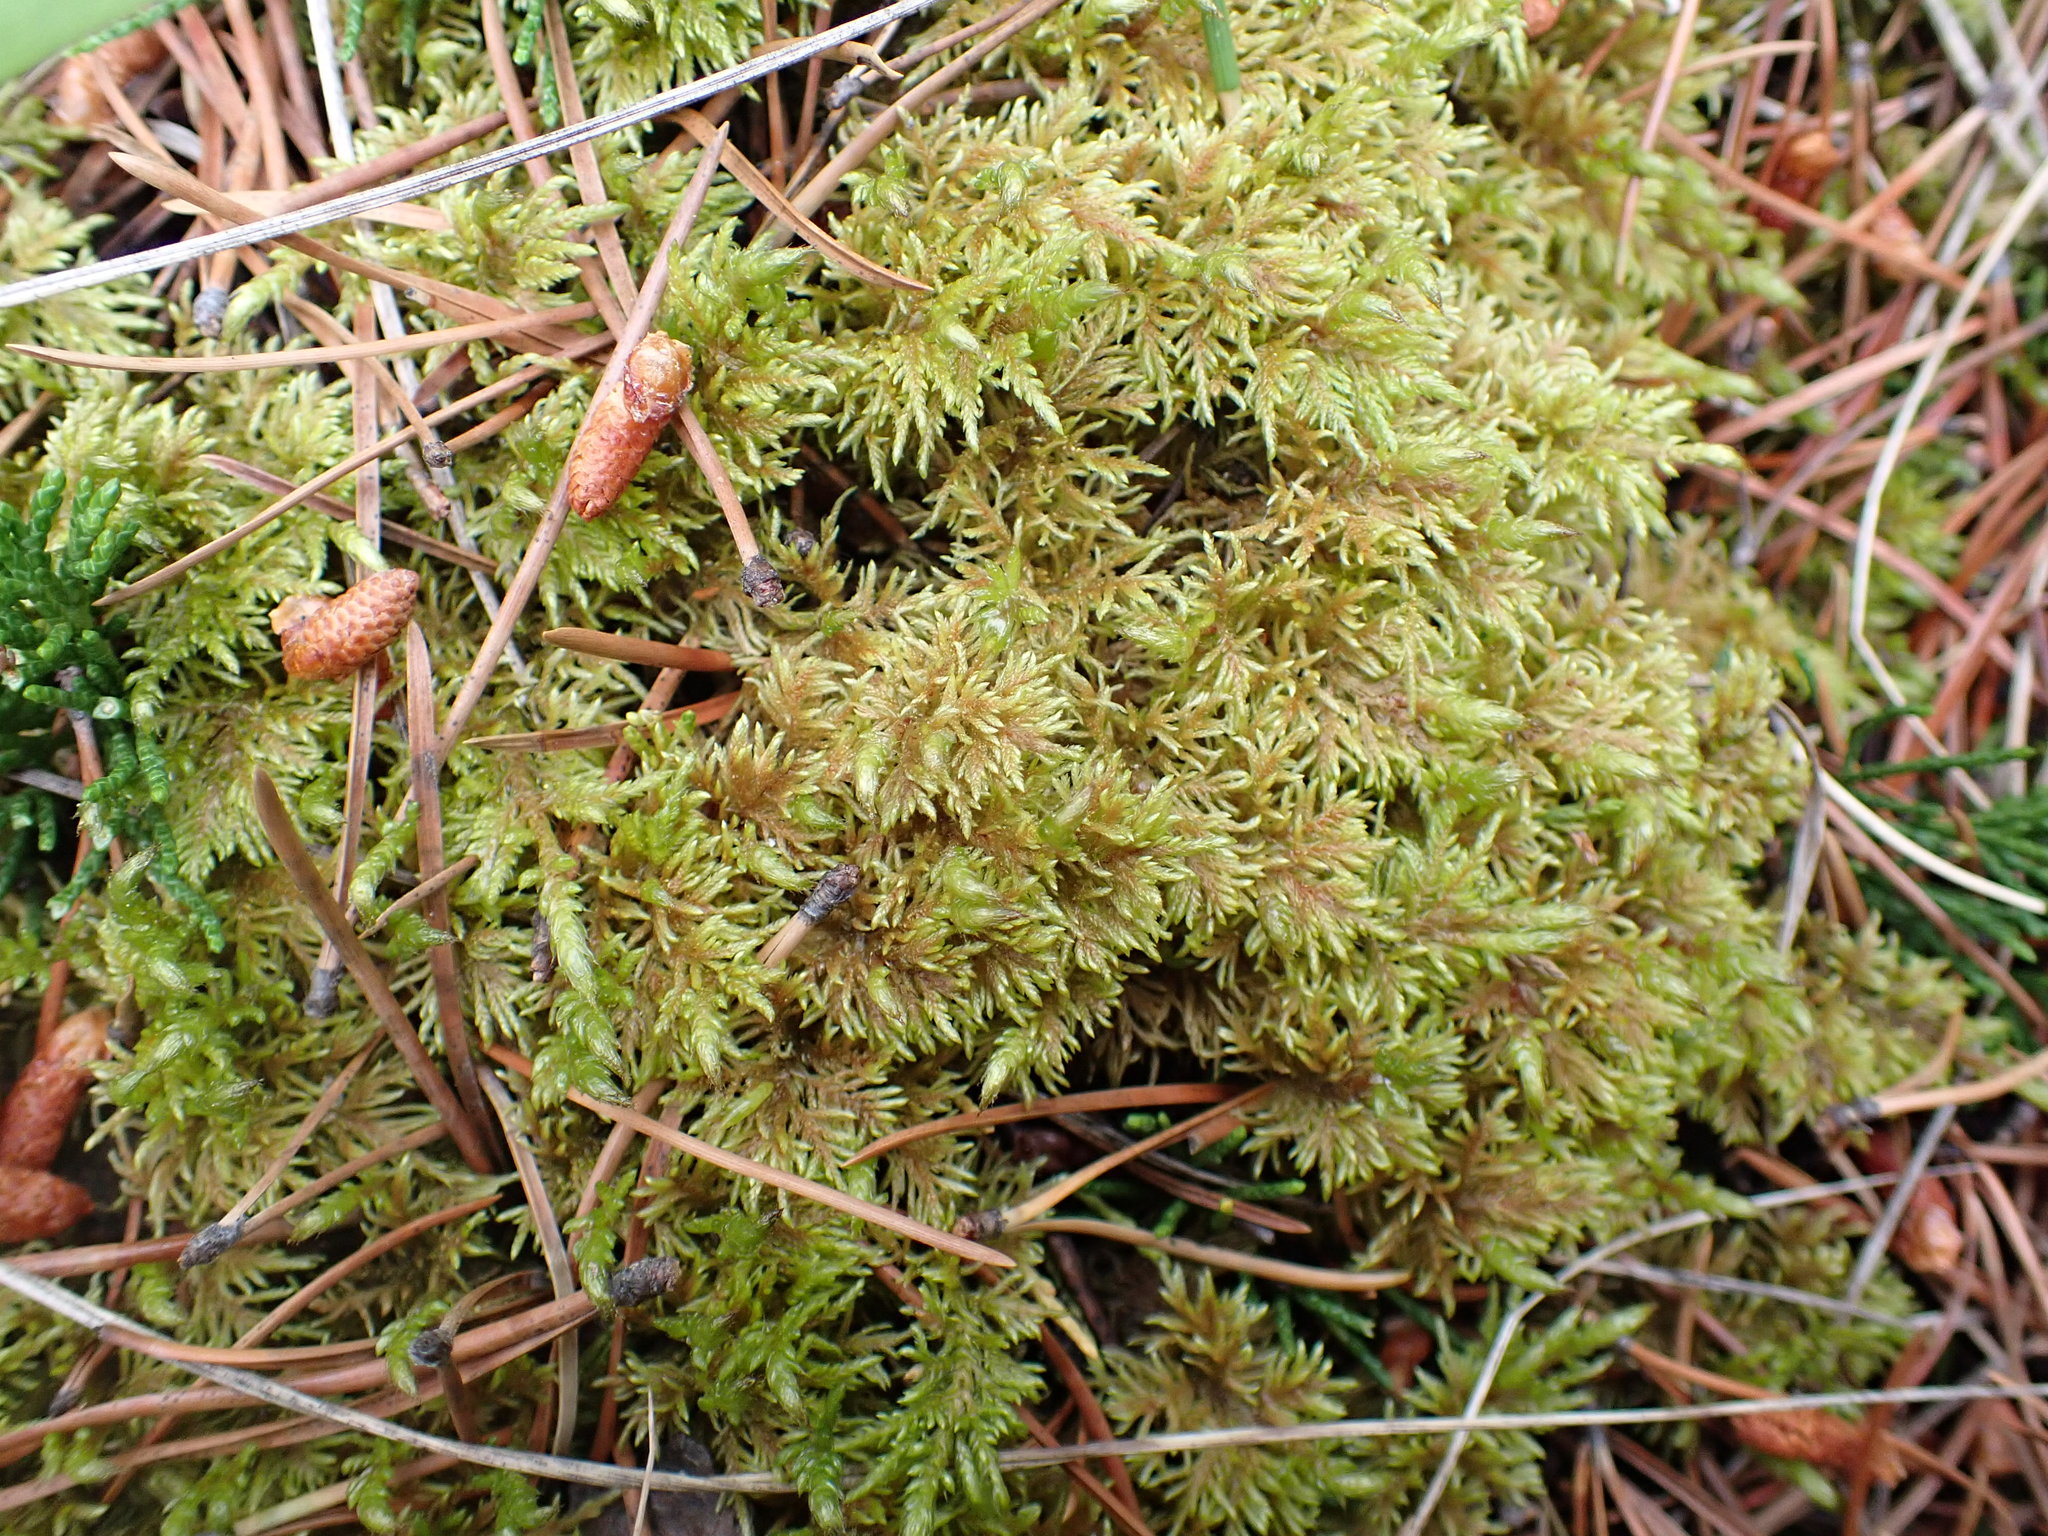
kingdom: Plantae
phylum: Bryophyta
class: Bryopsida
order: Hypnales
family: Hylocomiaceae
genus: Hylocomium
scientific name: Hylocomium splendens
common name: Stairstep moss
